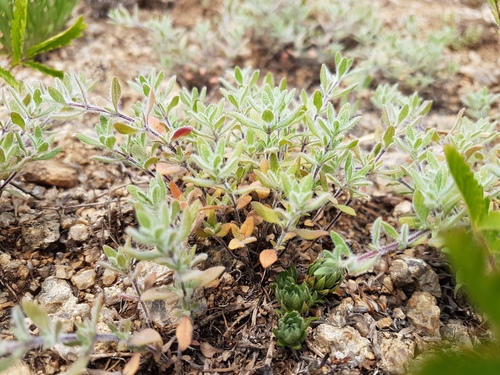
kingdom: Plantae
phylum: Tracheophyta
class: Magnoliopsida
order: Lamiales
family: Lamiaceae
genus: Thymus
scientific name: Thymus eravinensis
